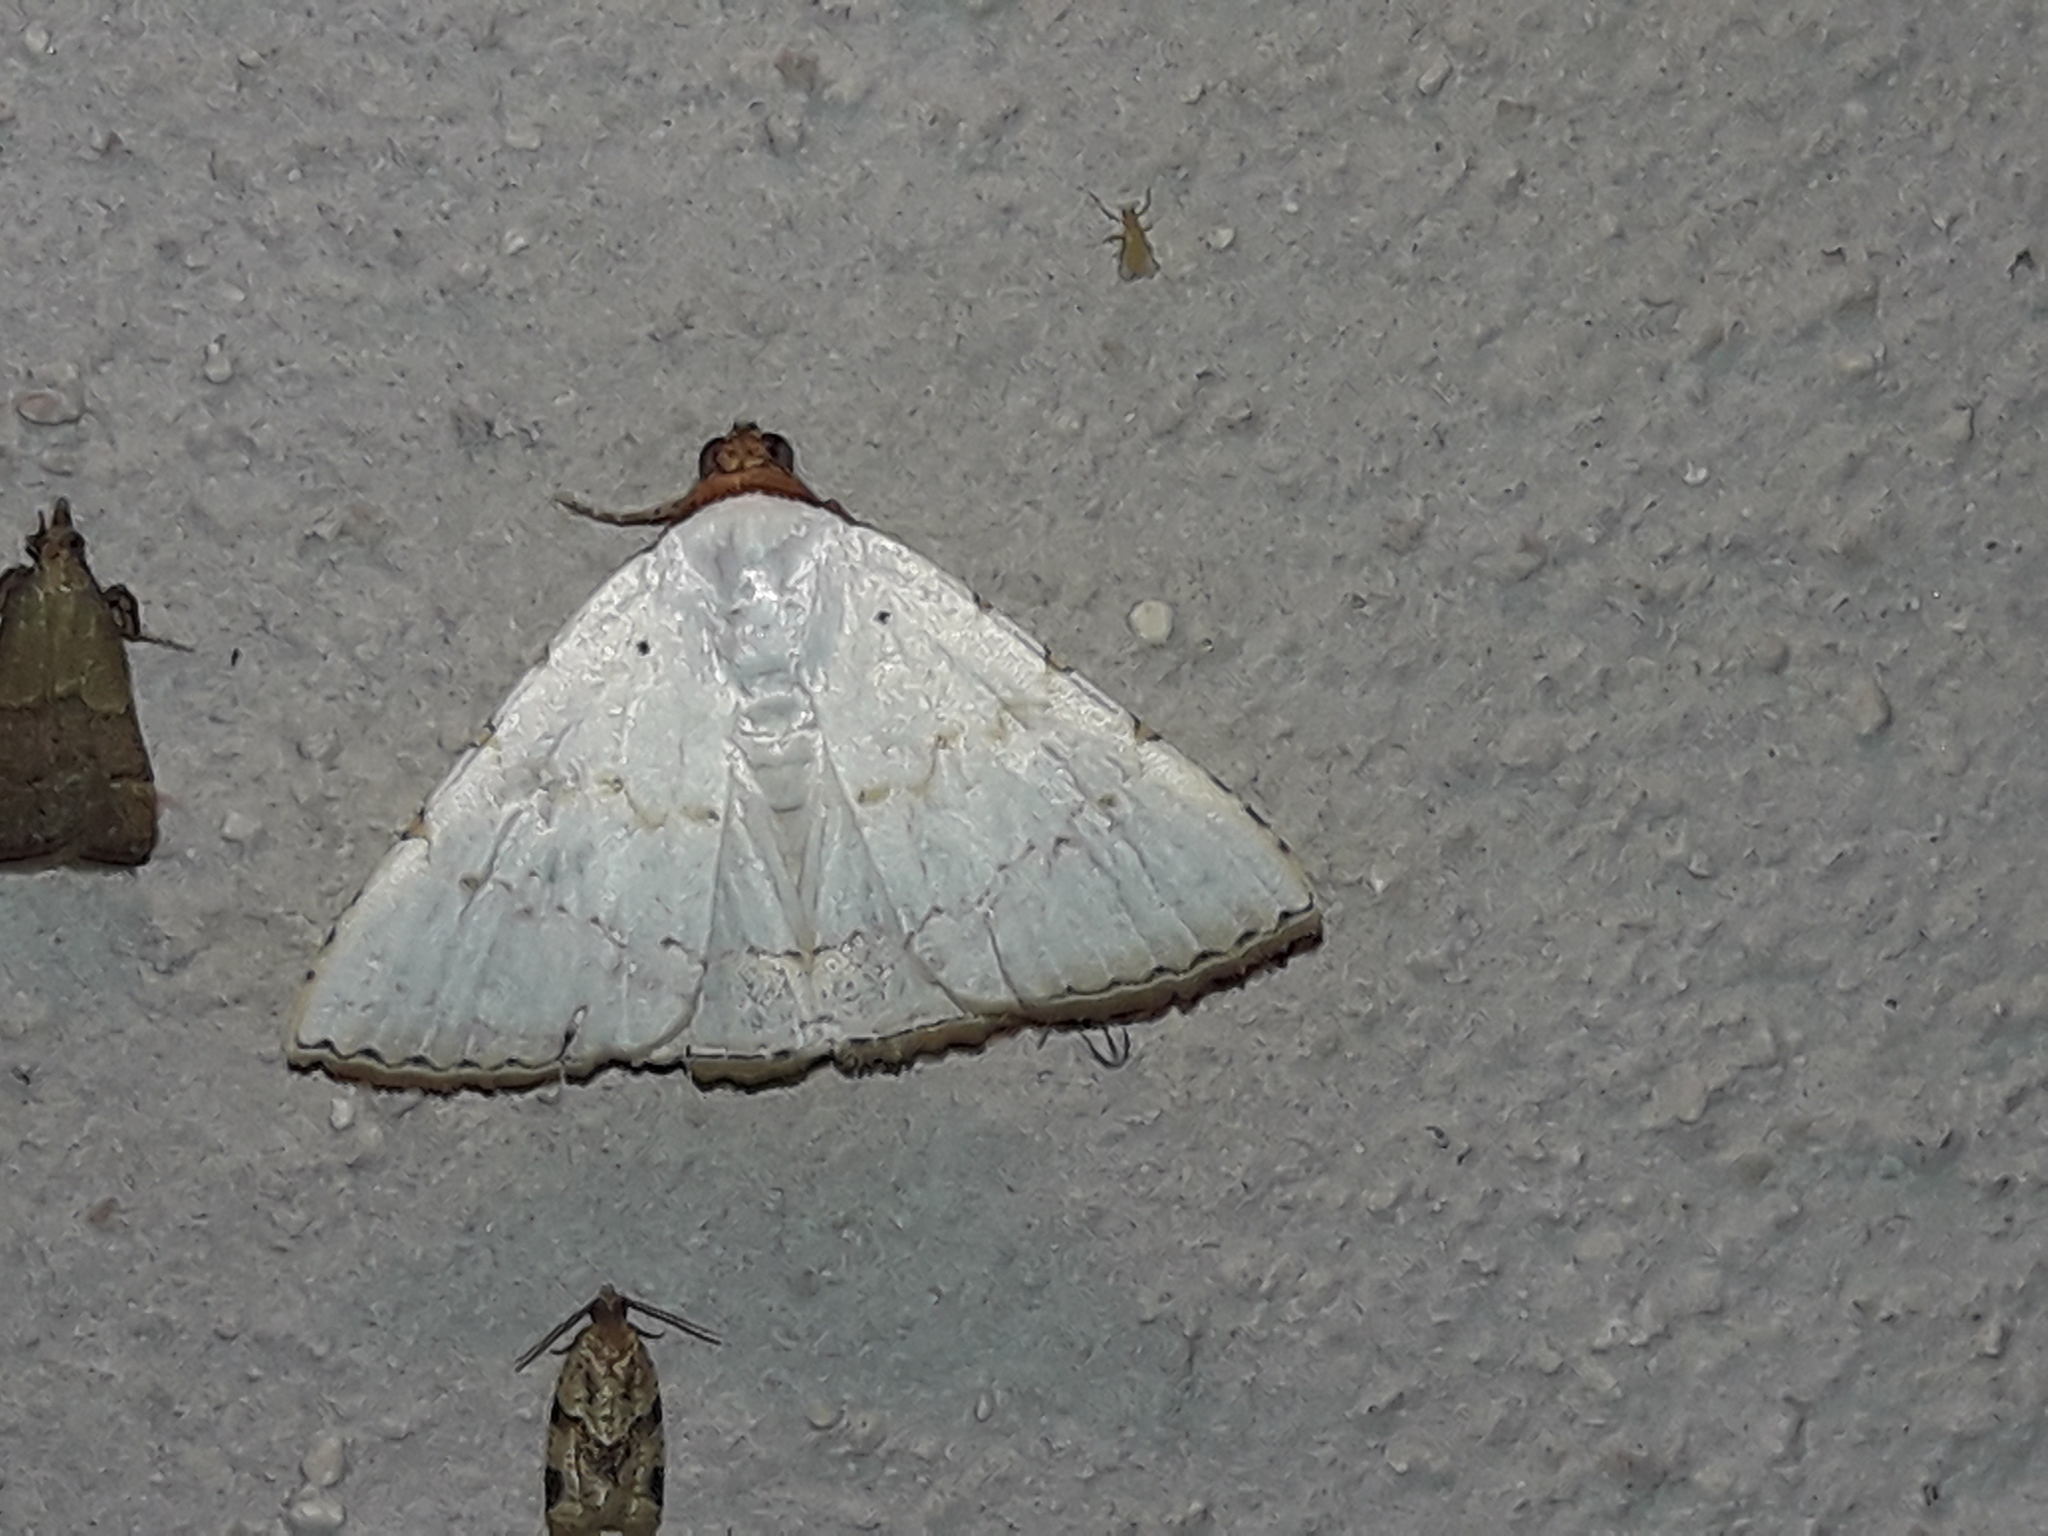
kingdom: Animalia
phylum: Arthropoda
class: Insecta
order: Lepidoptera
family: Erebidae
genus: Eulepidotis
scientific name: Eulepidotis alabastraria
